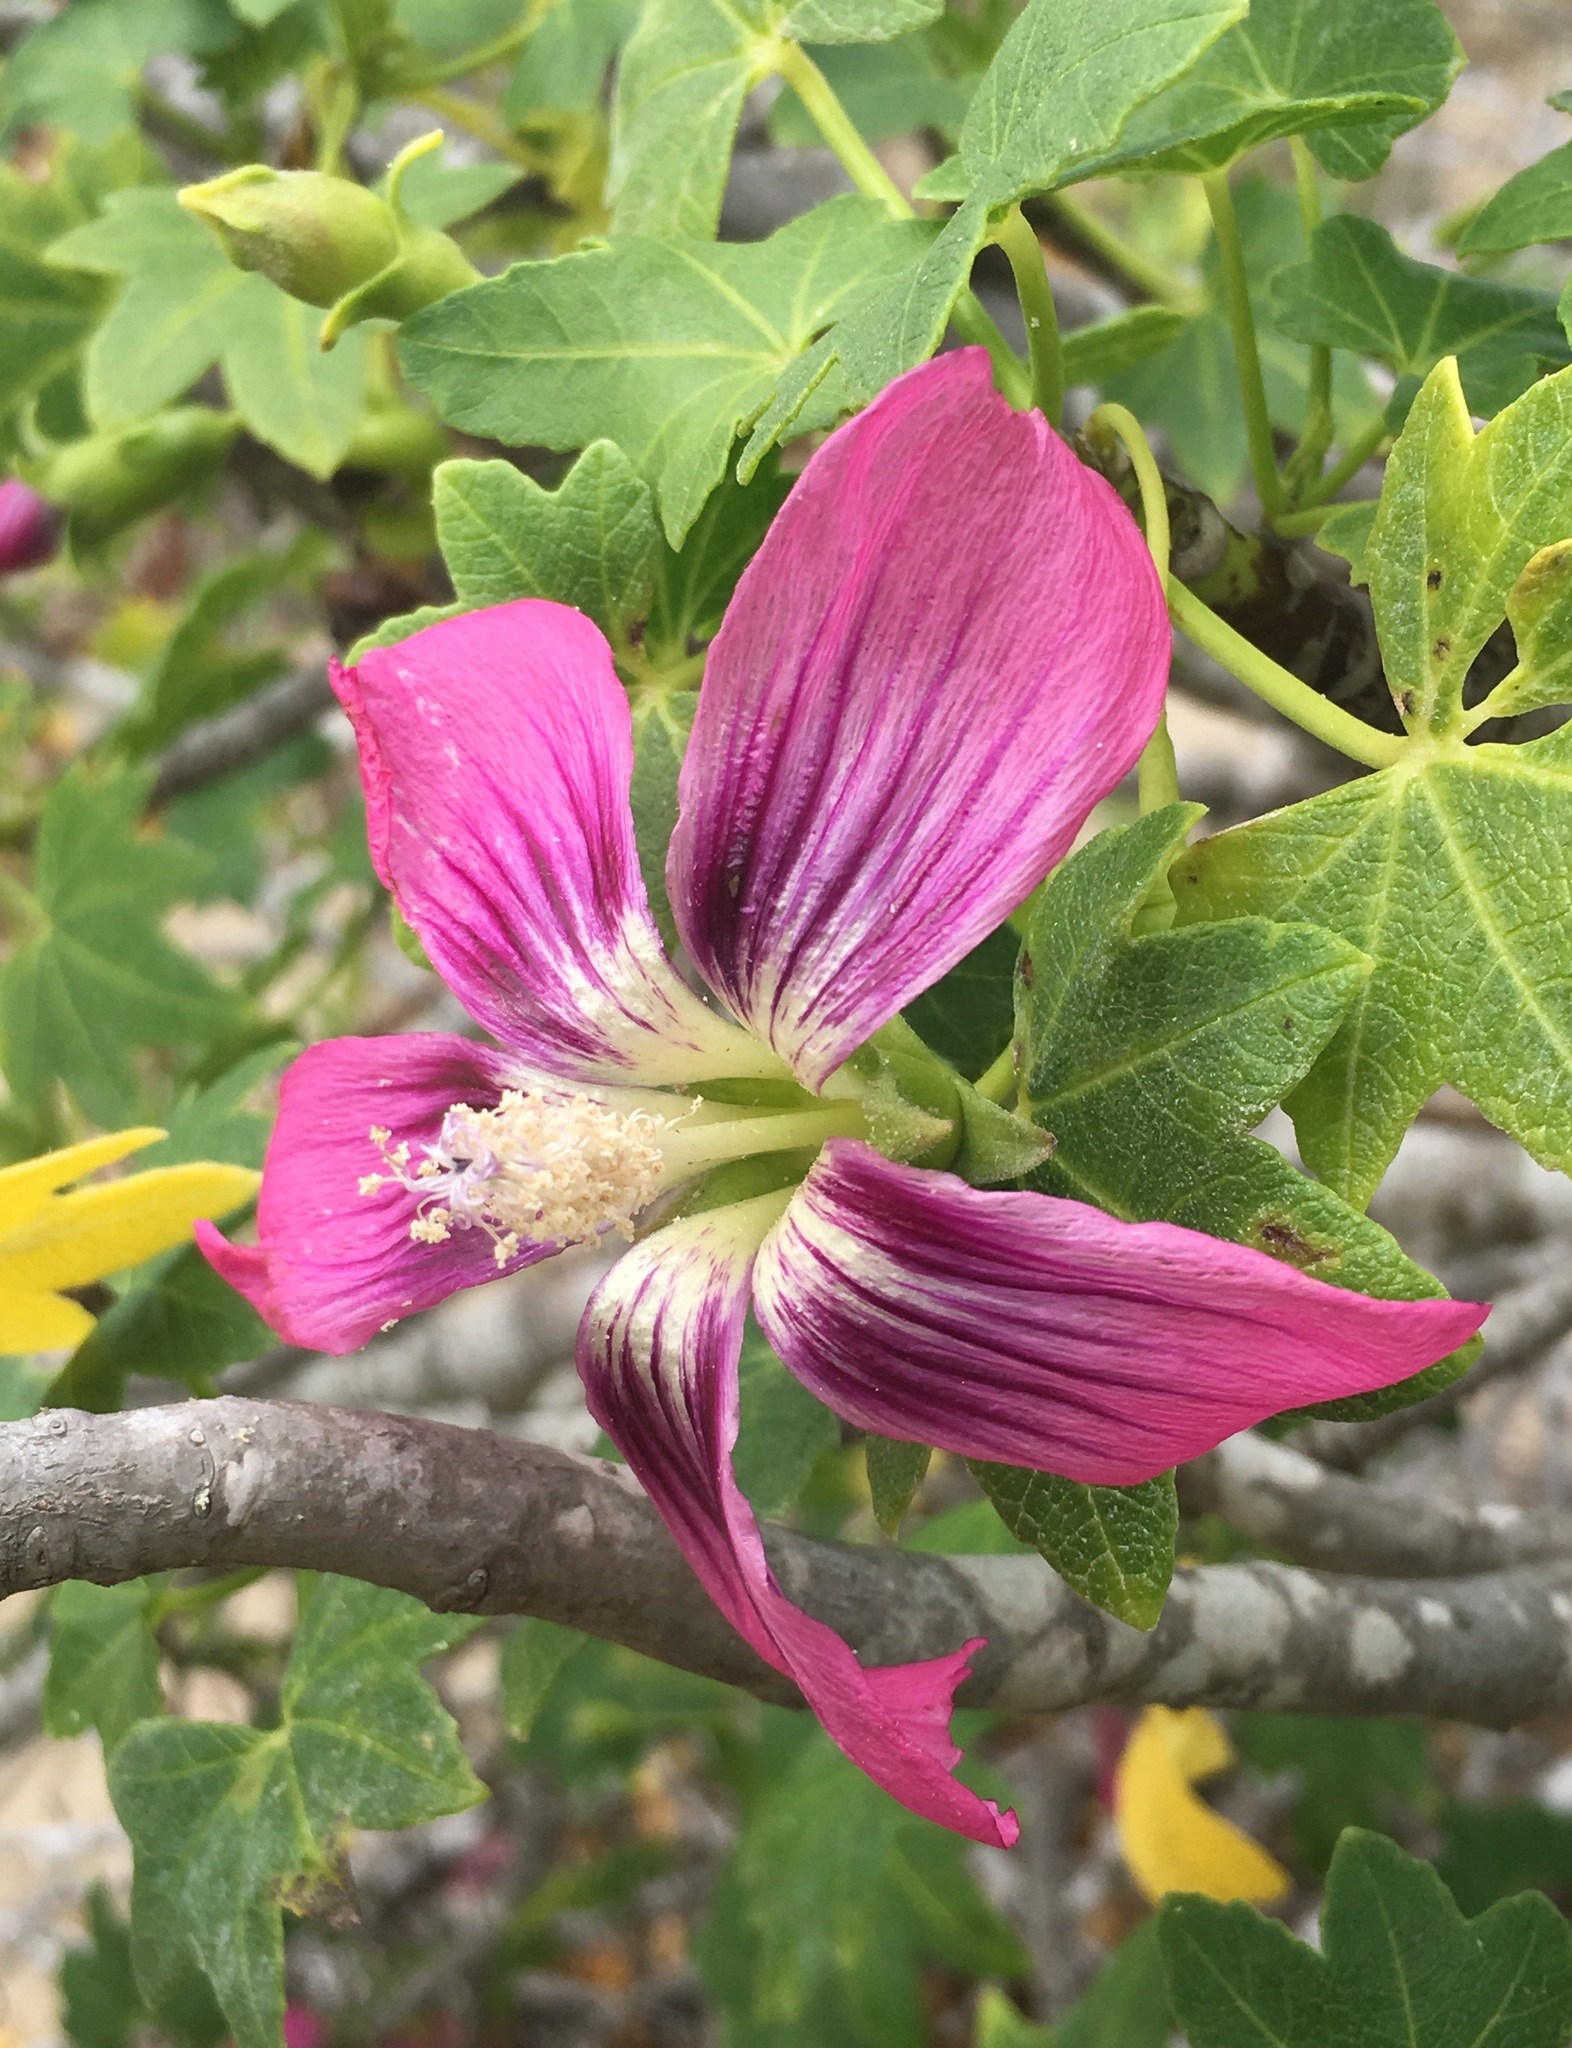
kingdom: Plantae
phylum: Tracheophyta
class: Magnoliopsida
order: Malvales
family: Malvaceae
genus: Malva
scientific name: Malva assurgentiflora
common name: Island mallow
